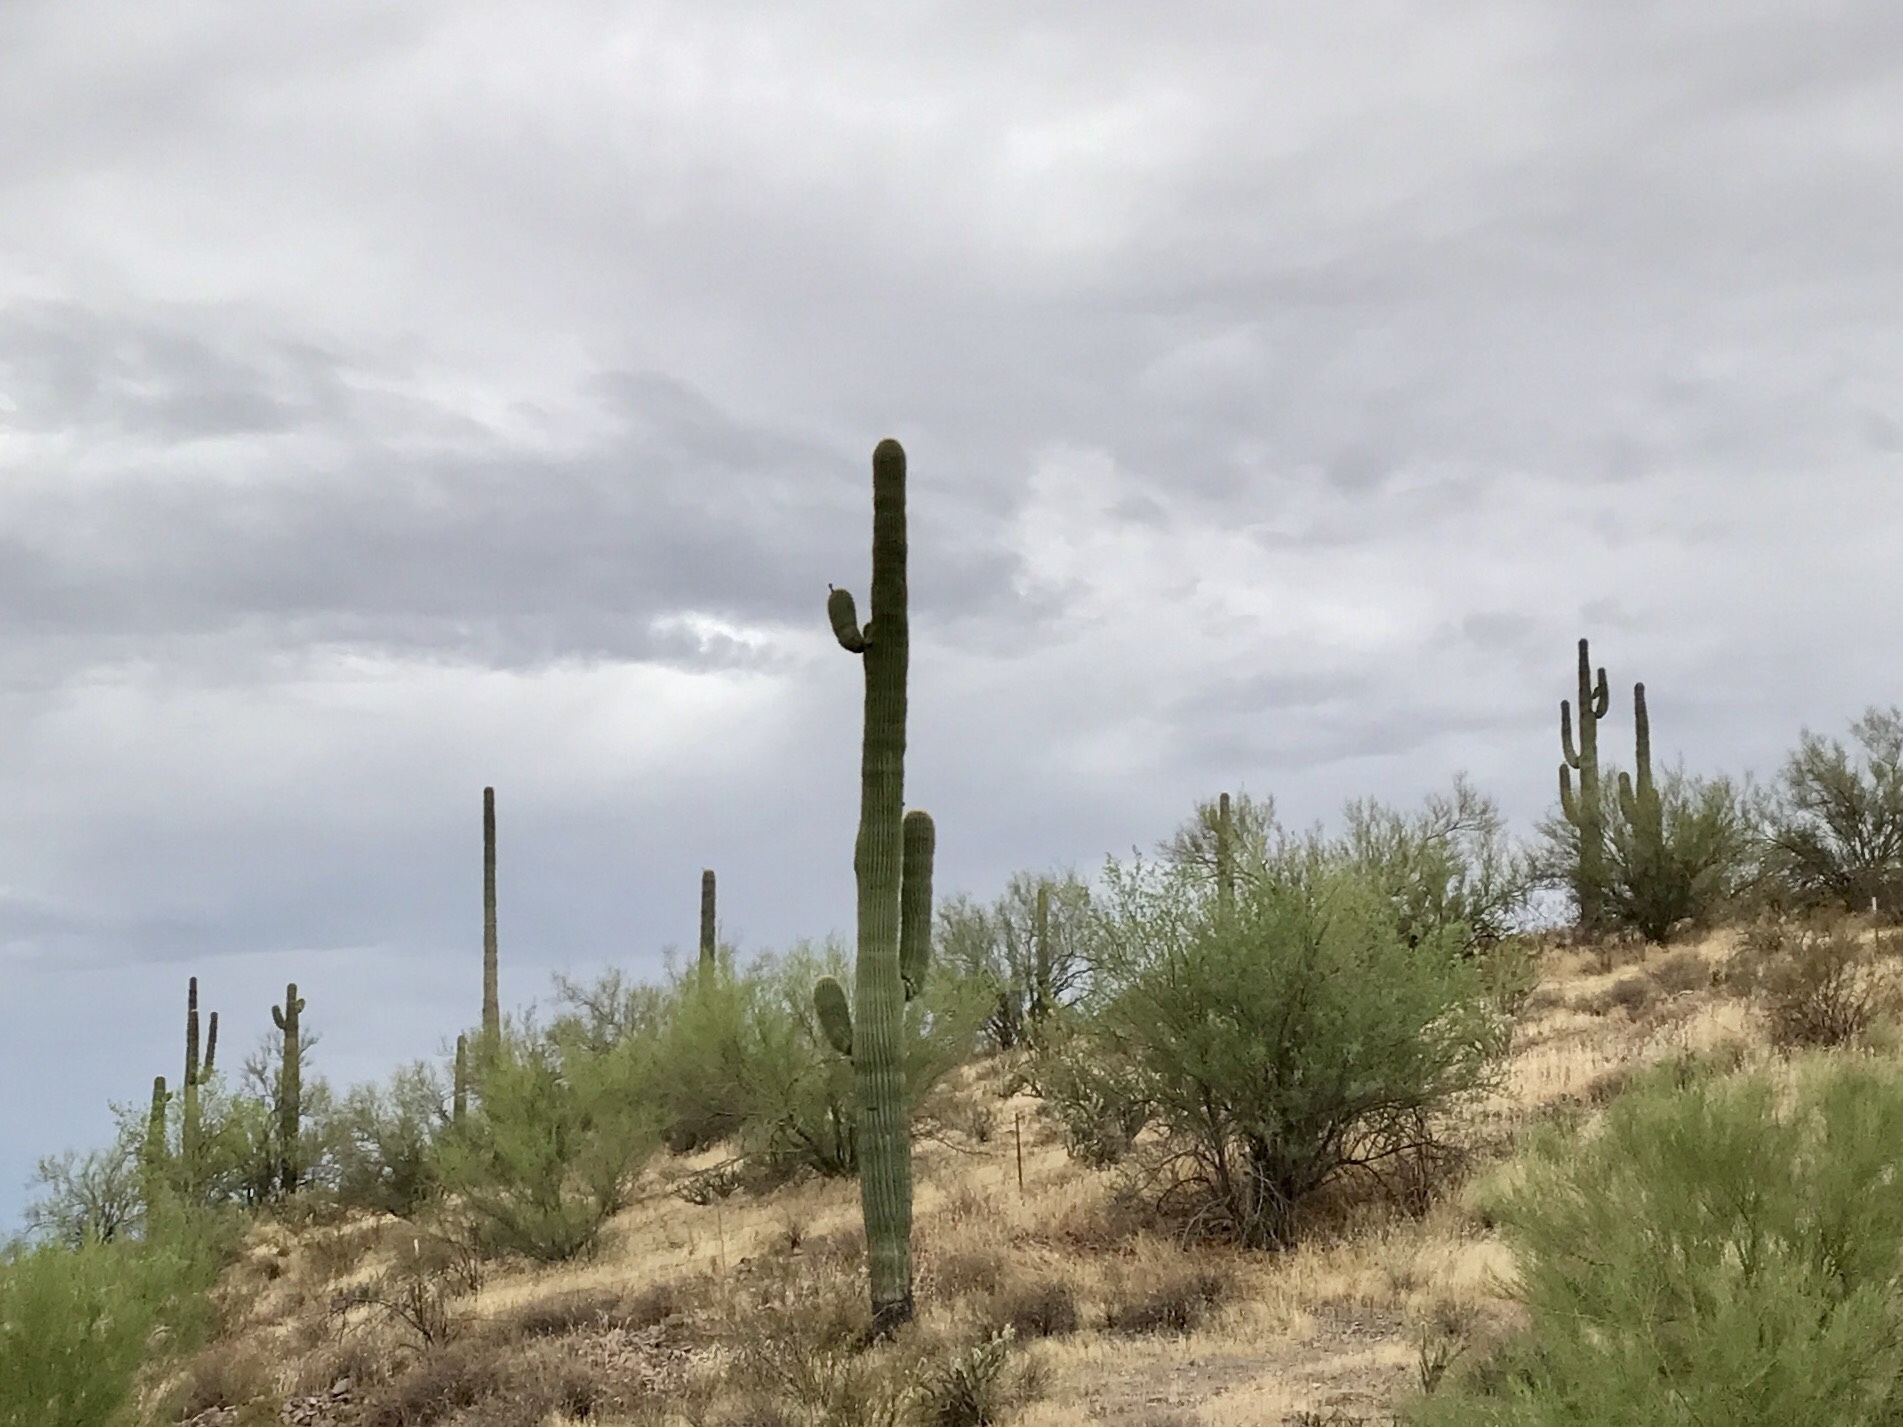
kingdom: Plantae
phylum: Tracheophyta
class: Magnoliopsida
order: Caryophyllales
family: Cactaceae
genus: Carnegiea
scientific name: Carnegiea gigantea
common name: Saguaro
